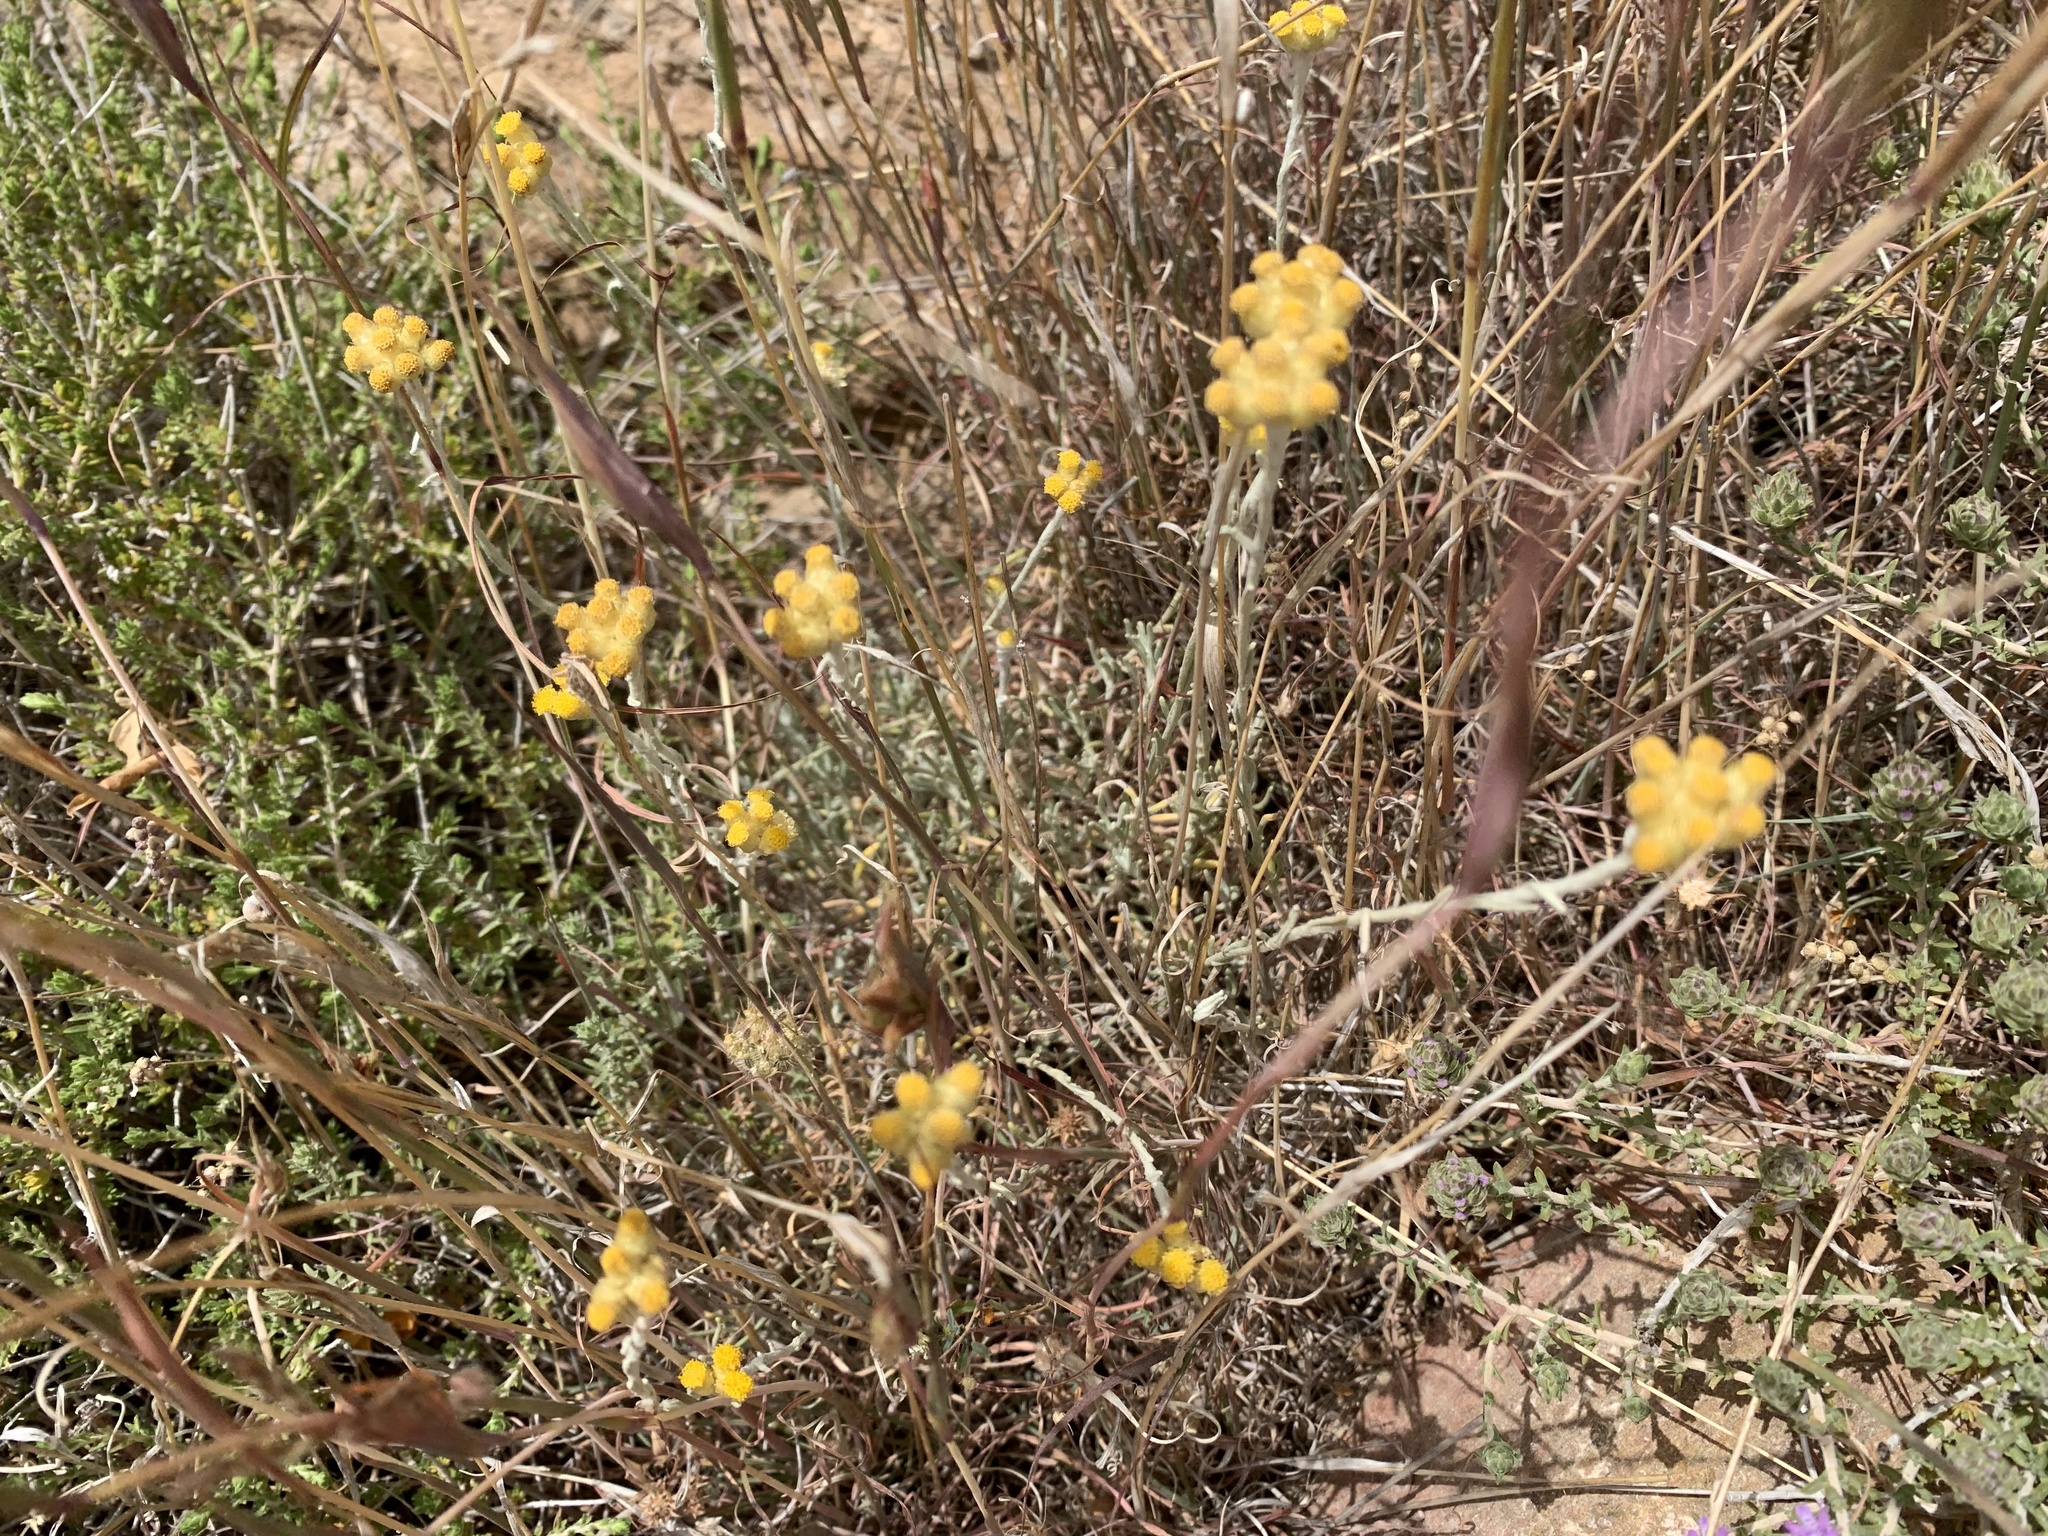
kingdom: Plantae
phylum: Tracheophyta
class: Magnoliopsida
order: Asterales
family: Asteraceae
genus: Helichrysum
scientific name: Helichrysum stoechas
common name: Goldilocks
